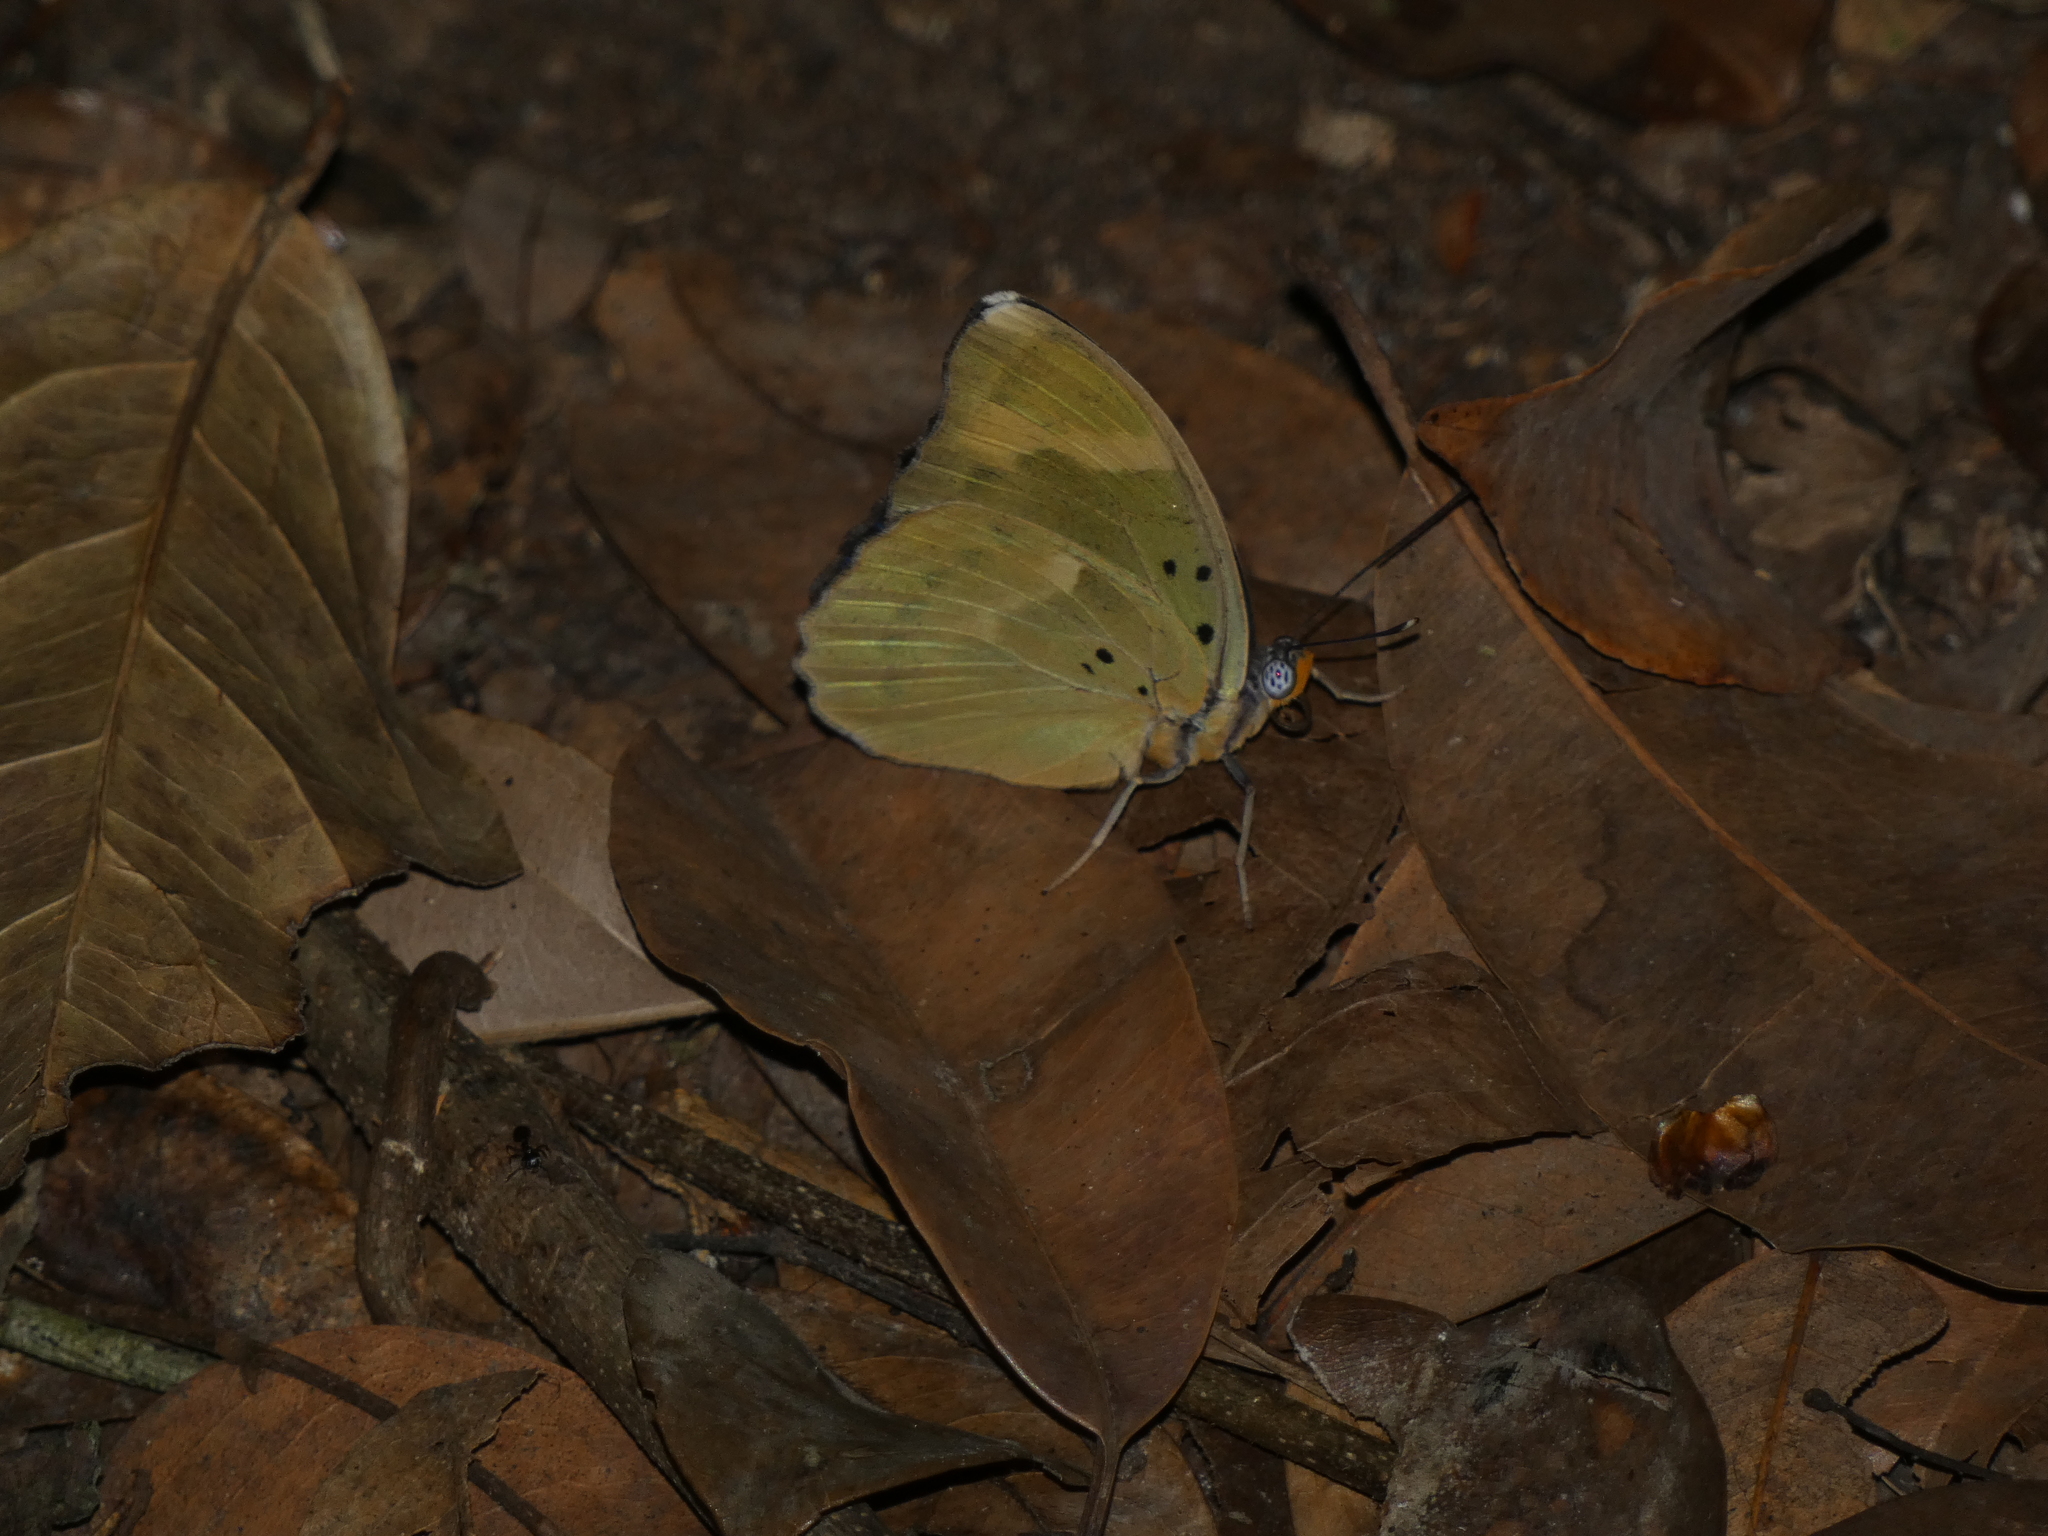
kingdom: Animalia
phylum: Arthropoda
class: Insecta
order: Lepidoptera
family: Nymphalidae
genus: Euphaedra
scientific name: Euphaedra medon
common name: Widespread forester
